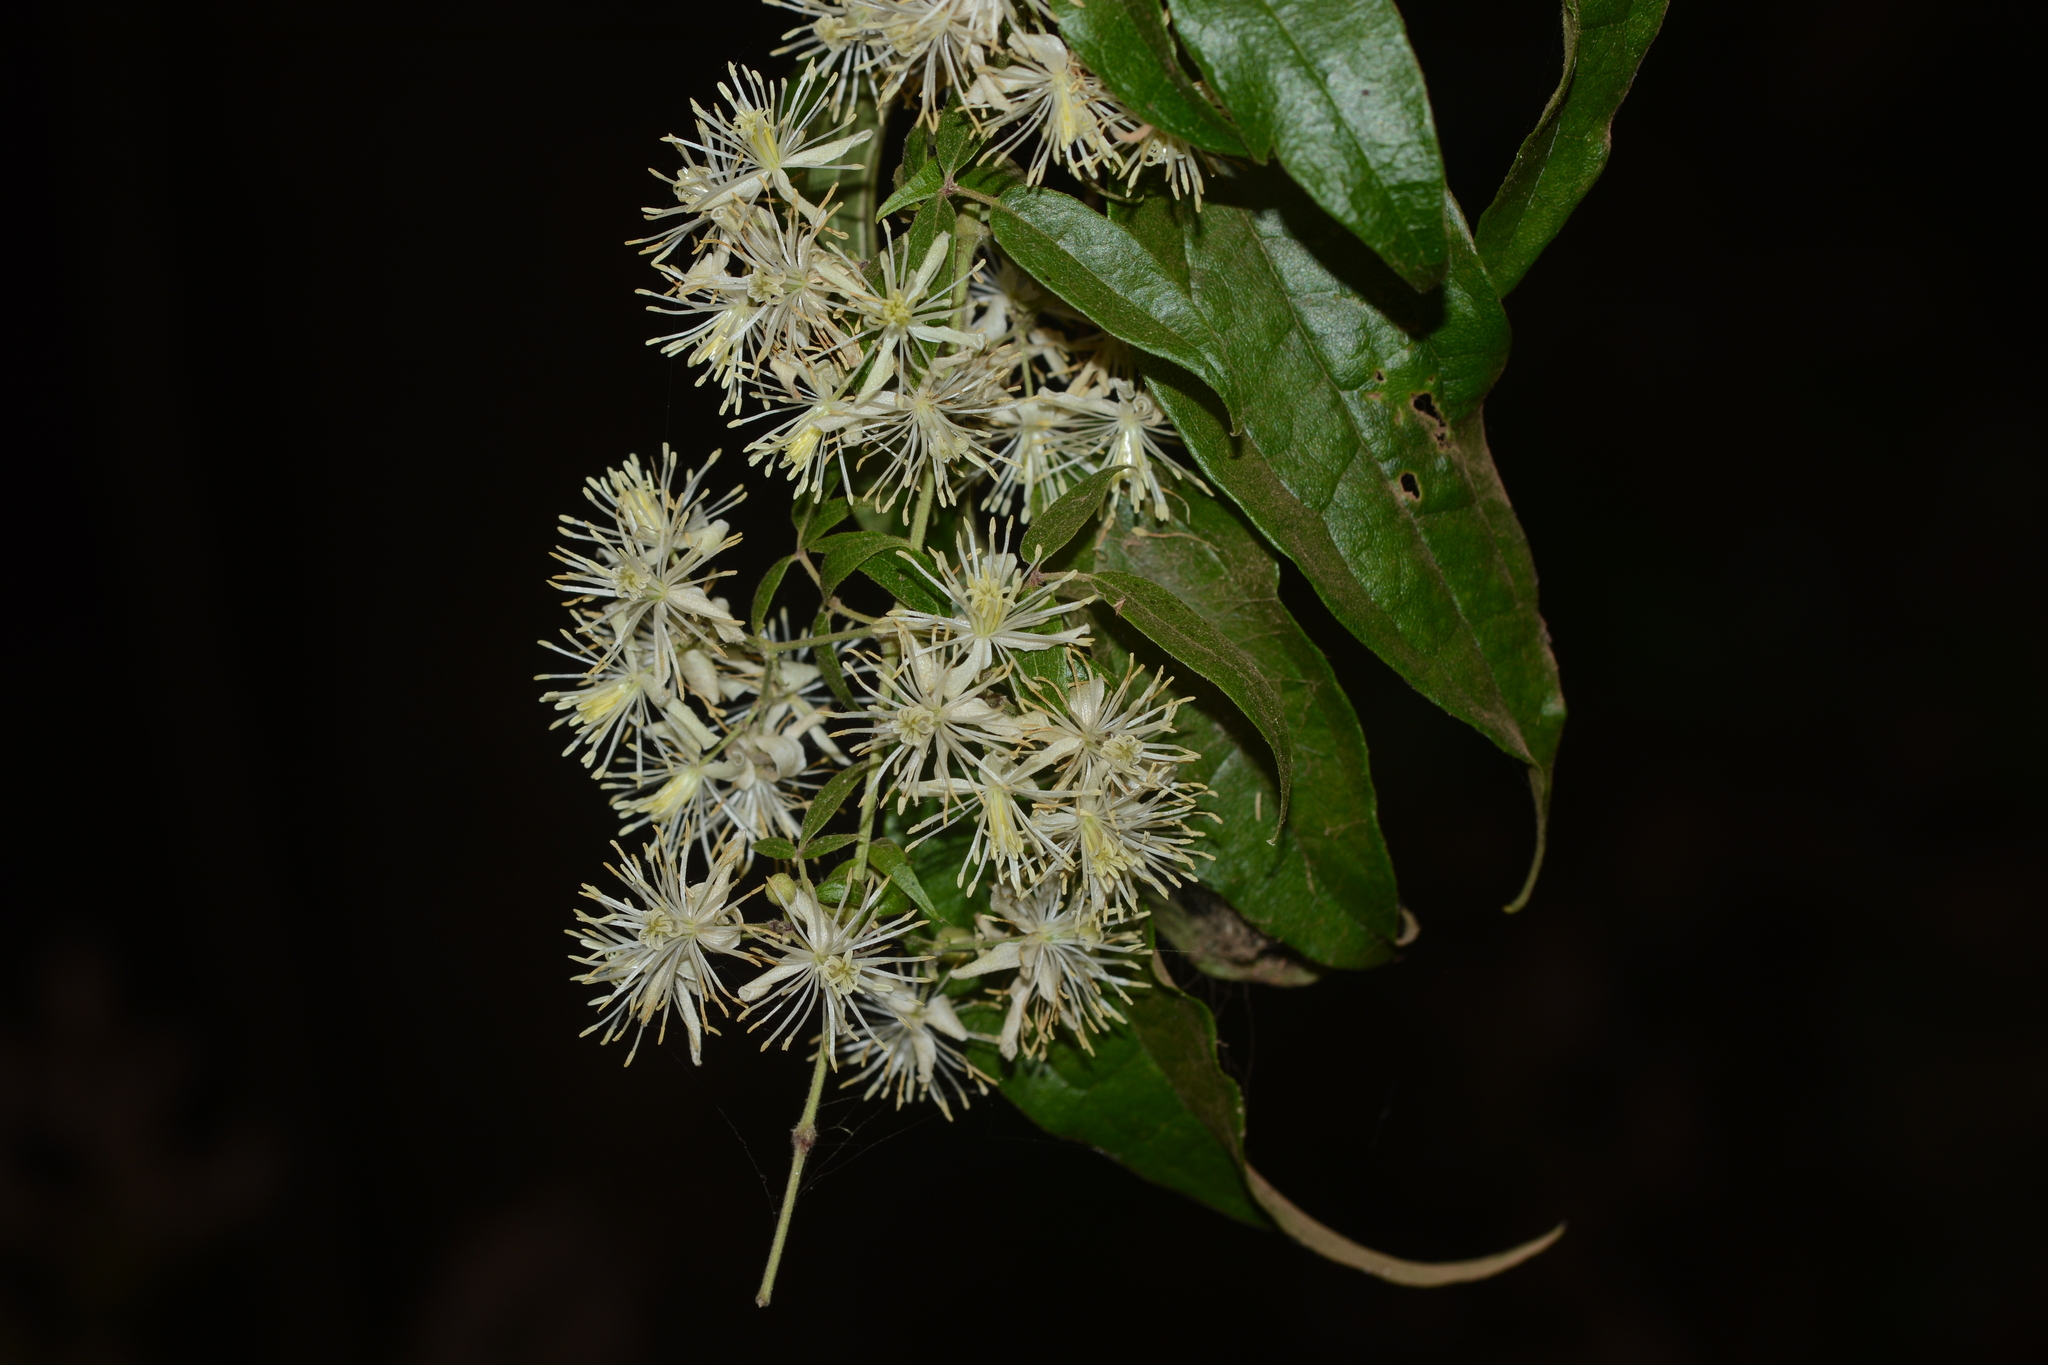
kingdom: Plantae
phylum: Tracheophyta
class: Magnoliopsida
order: Ranunculales
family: Ranunculaceae
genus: Clematis
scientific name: Clematis gouriana
